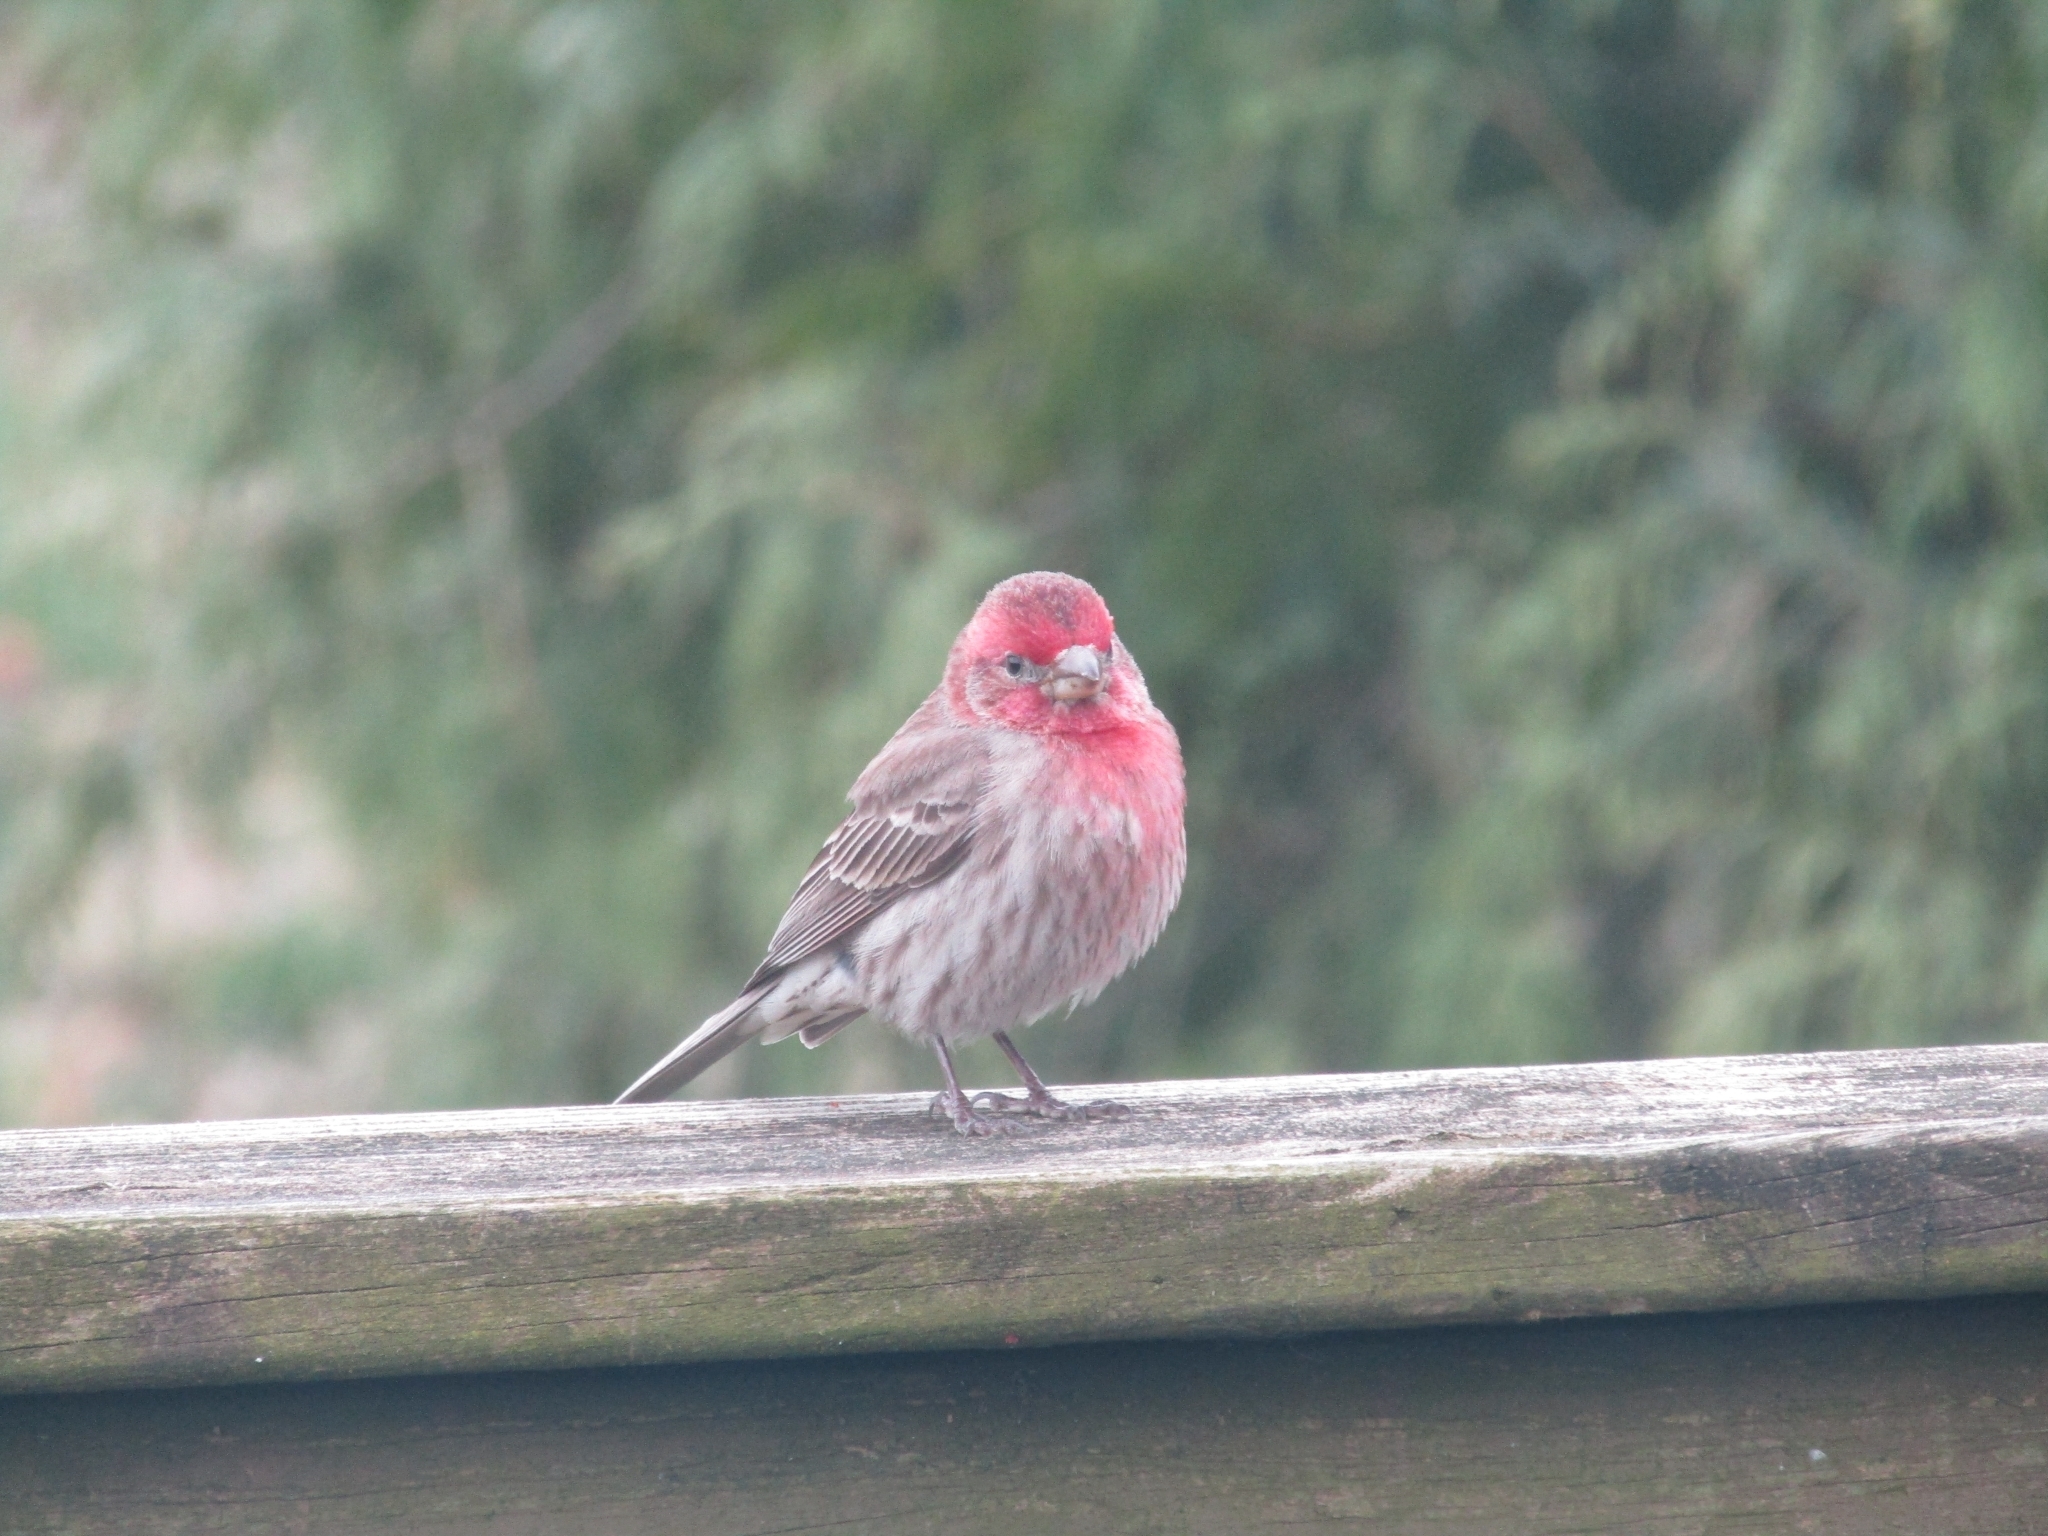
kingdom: Animalia
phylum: Chordata
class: Aves
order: Passeriformes
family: Fringillidae
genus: Haemorhous
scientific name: Haemorhous mexicanus
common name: House finch
